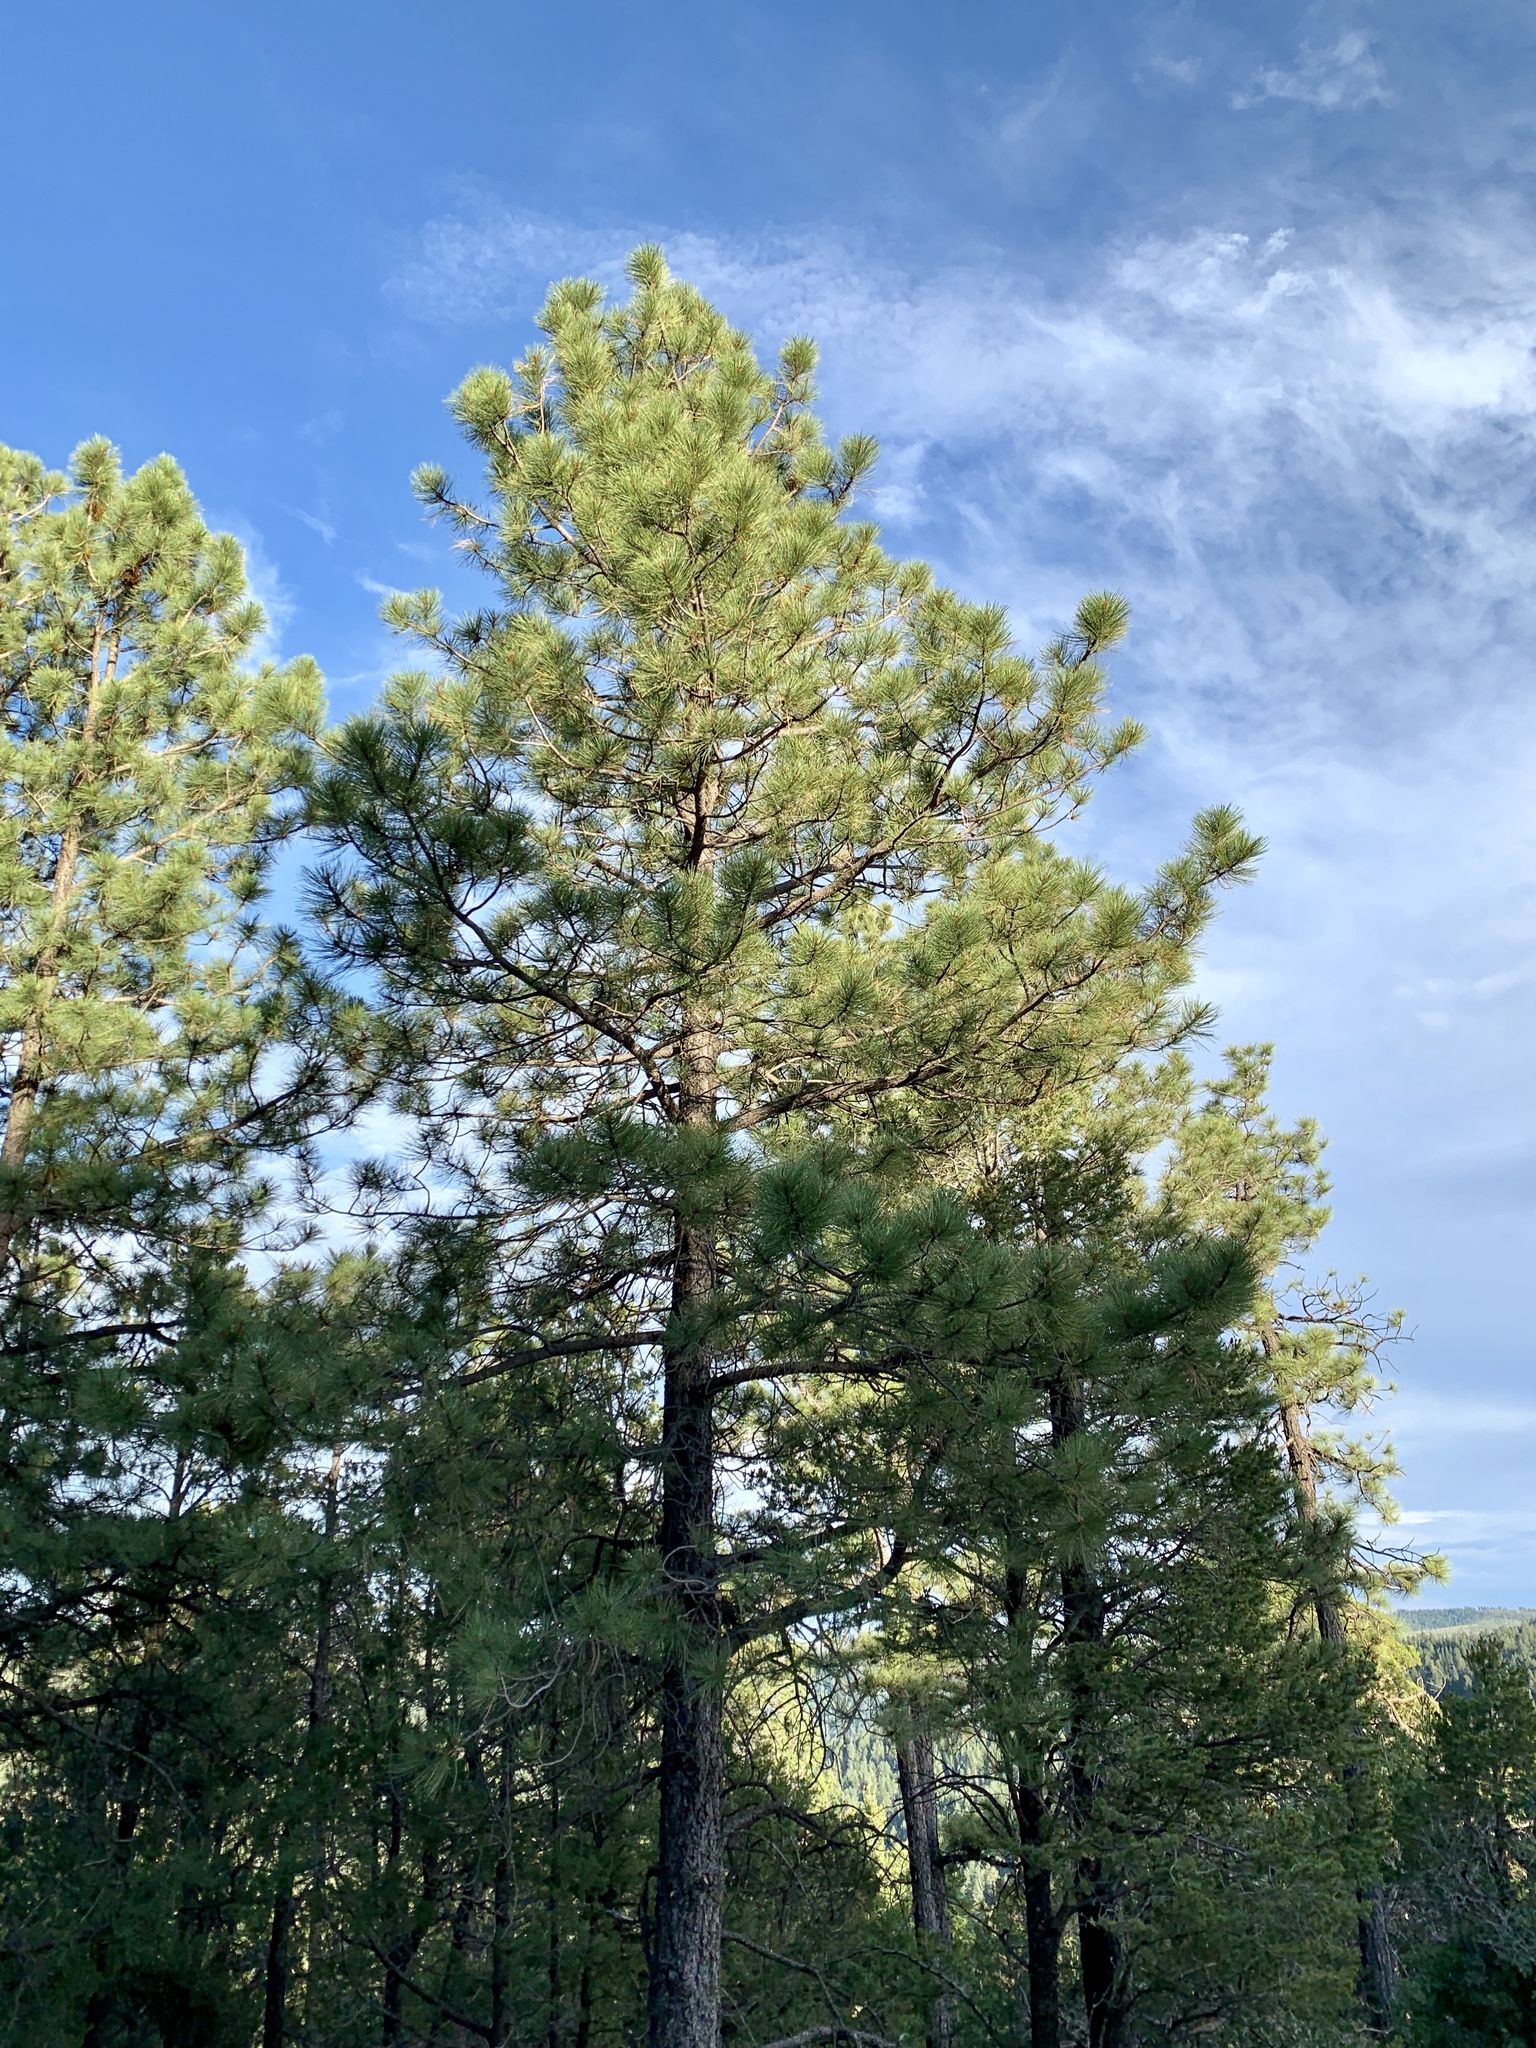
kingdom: Plantae
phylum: Tracheophyta
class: Pinopsida
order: Pinales
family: Pinaceae
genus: Pinus
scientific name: Pinus ponderosa
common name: Western yellow-pine
